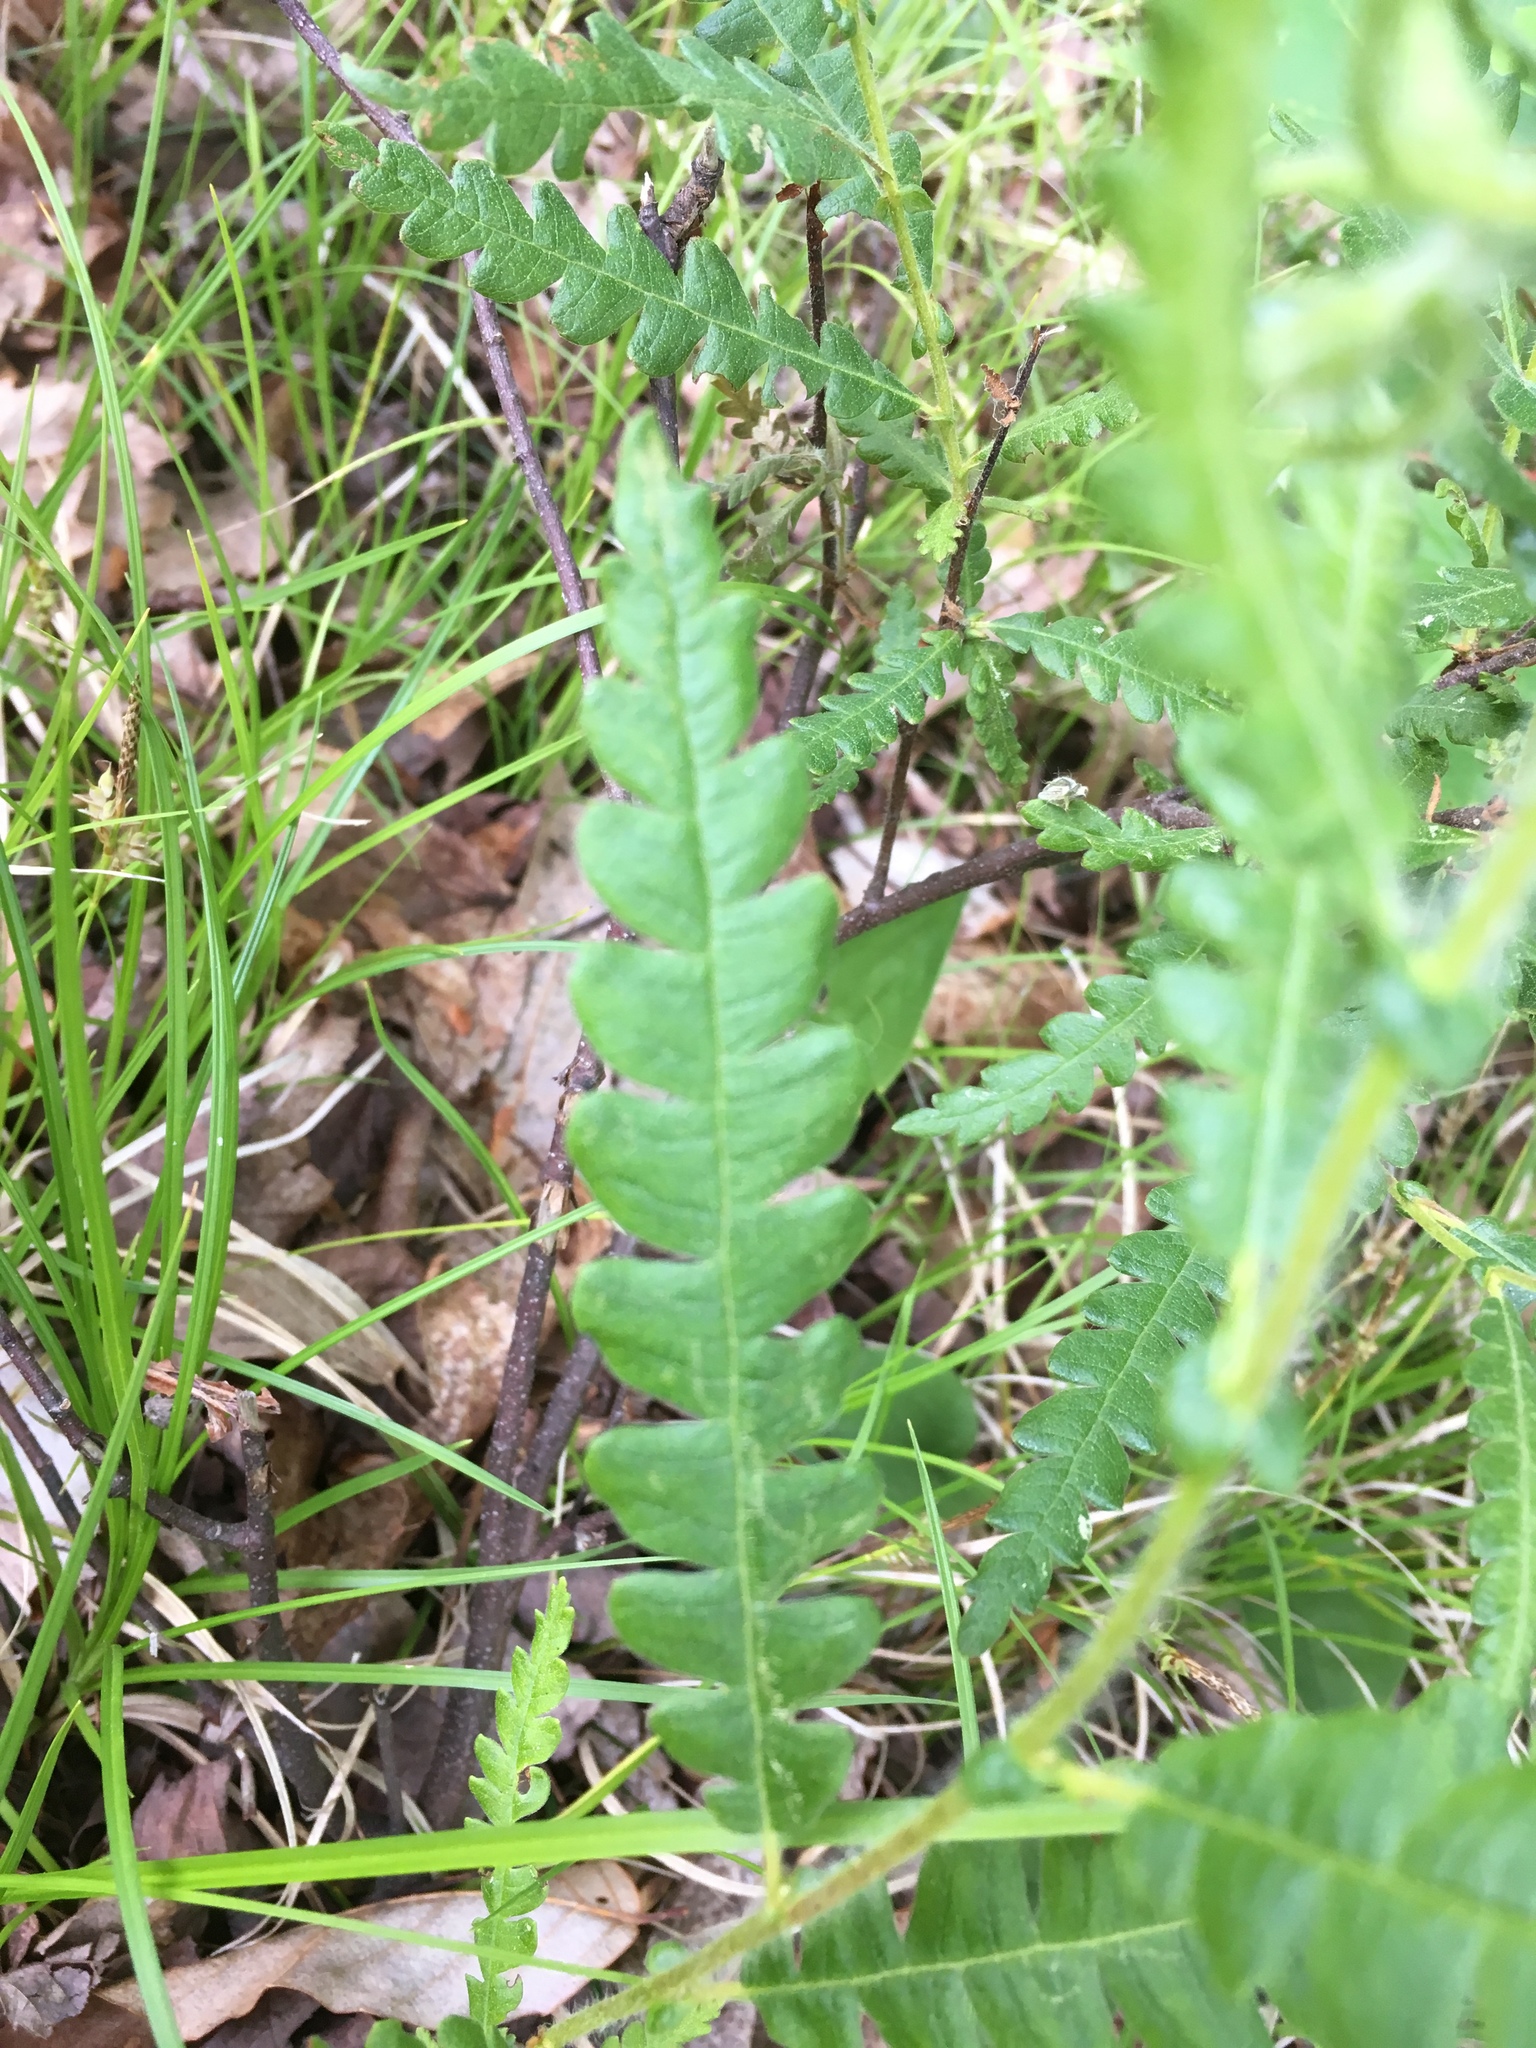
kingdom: Plantae
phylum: Tracheophyta
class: Magnoliopsida
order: Fagales
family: Myricaceae
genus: Comptonia
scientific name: Comptonia peregrina
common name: Sweet-fern
